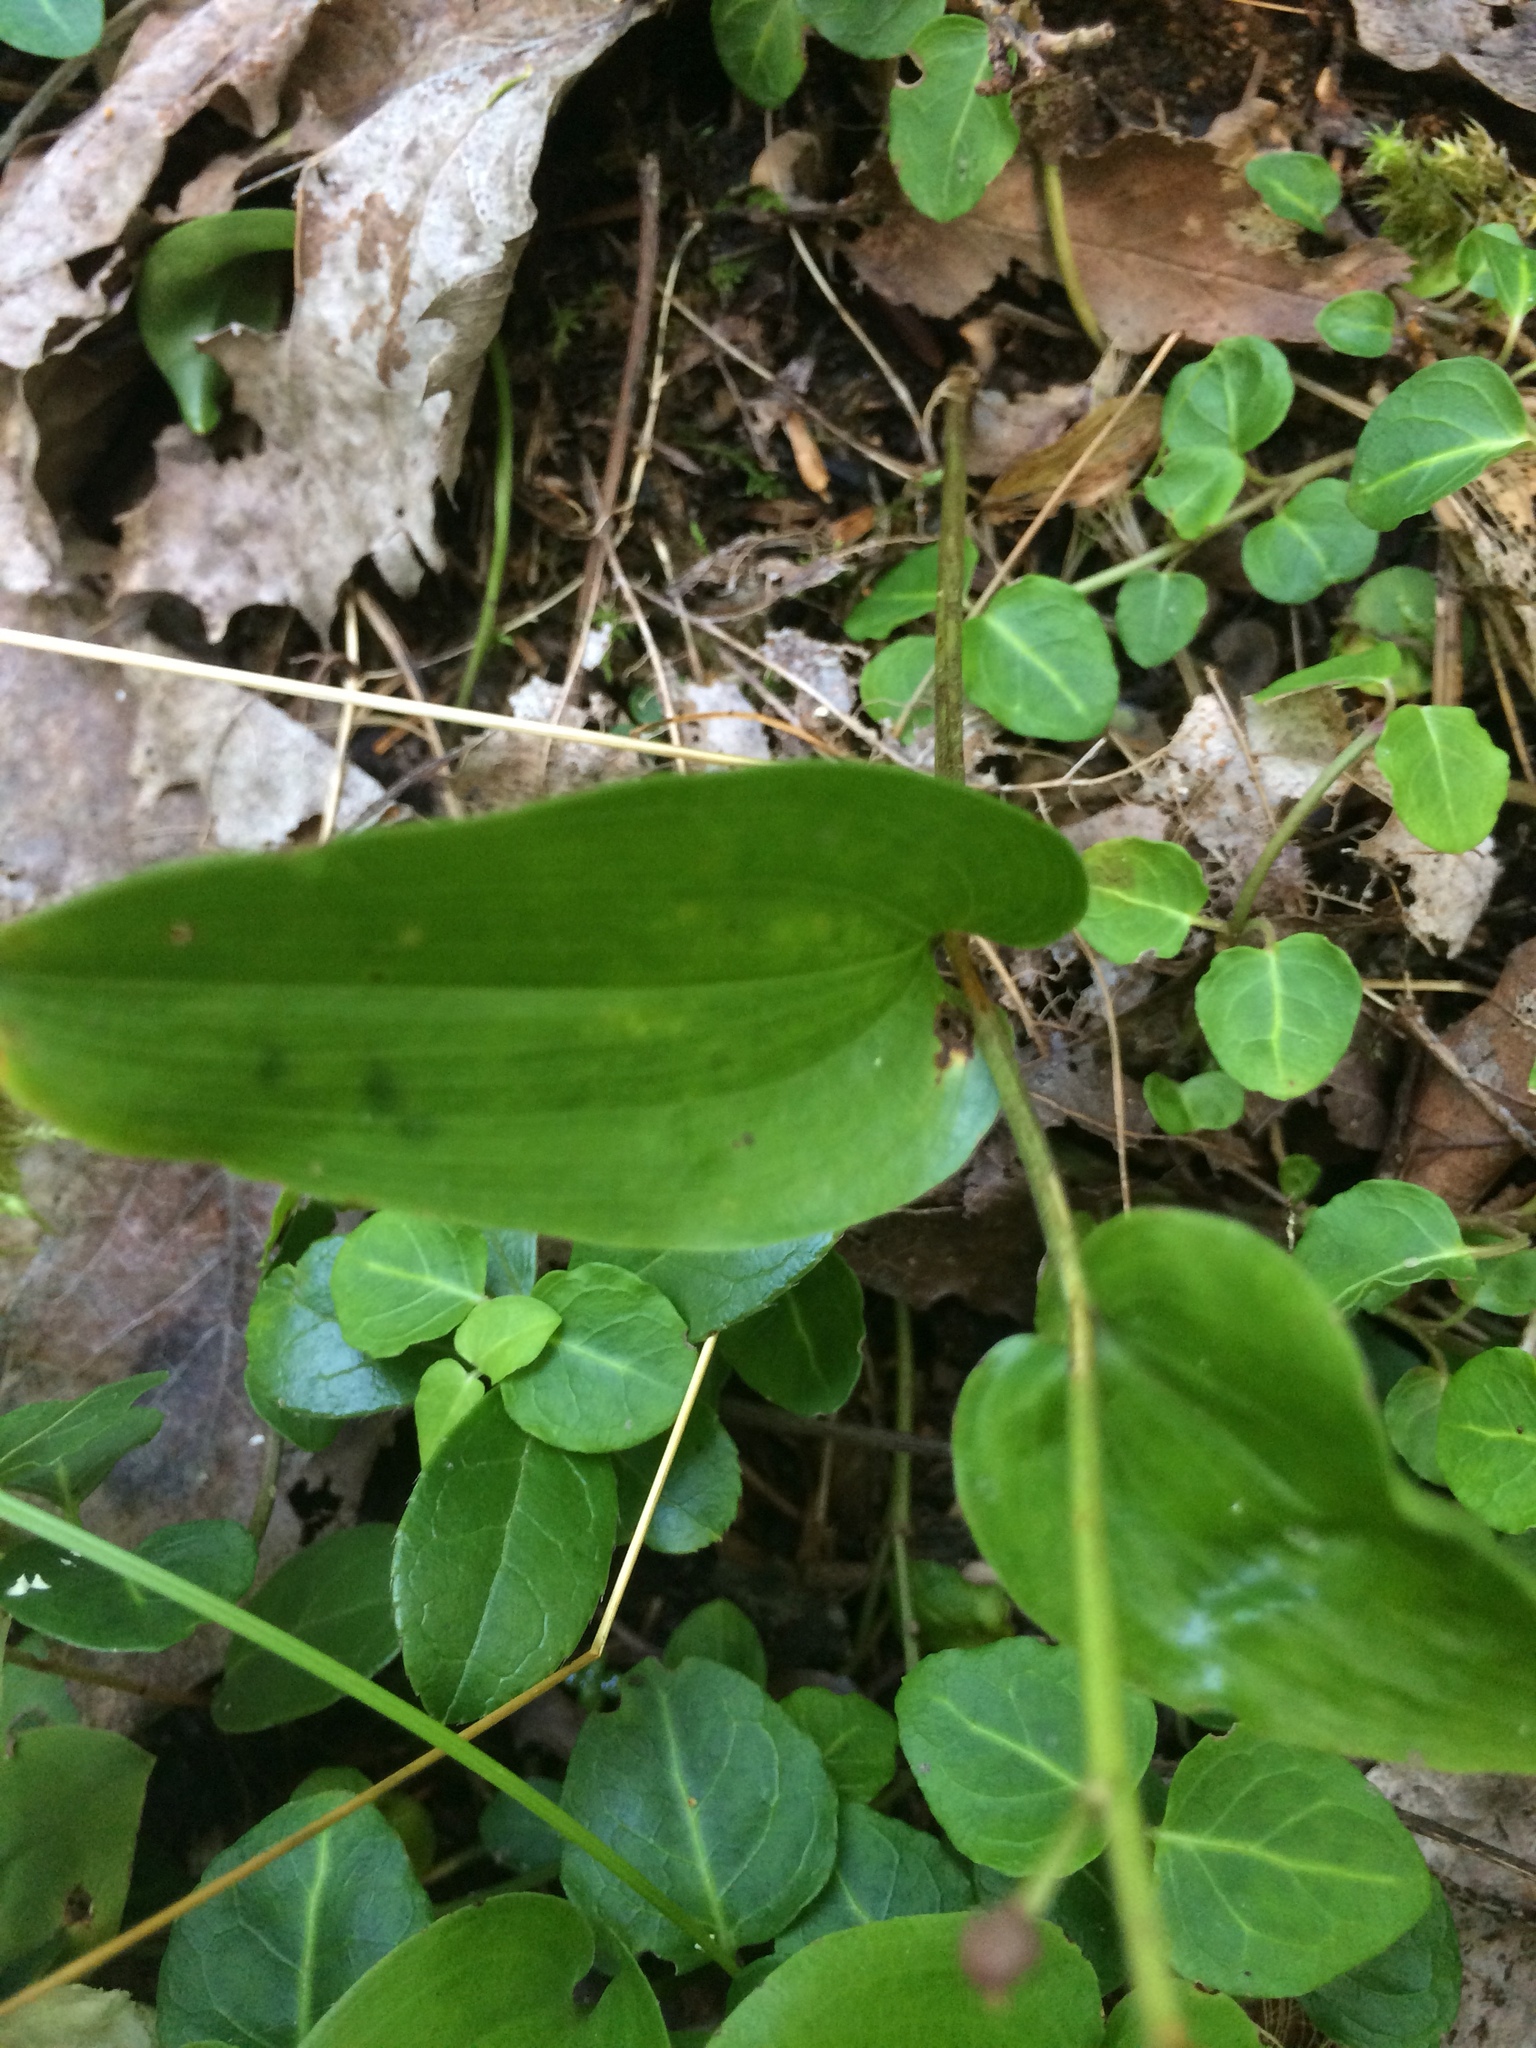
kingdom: Plantae
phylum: Tracheophyta
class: Liliopsida
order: Asparagales
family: Asparagaceae
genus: Maianthemum
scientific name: Maianthemum canadense
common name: False lily-of-the-valley
